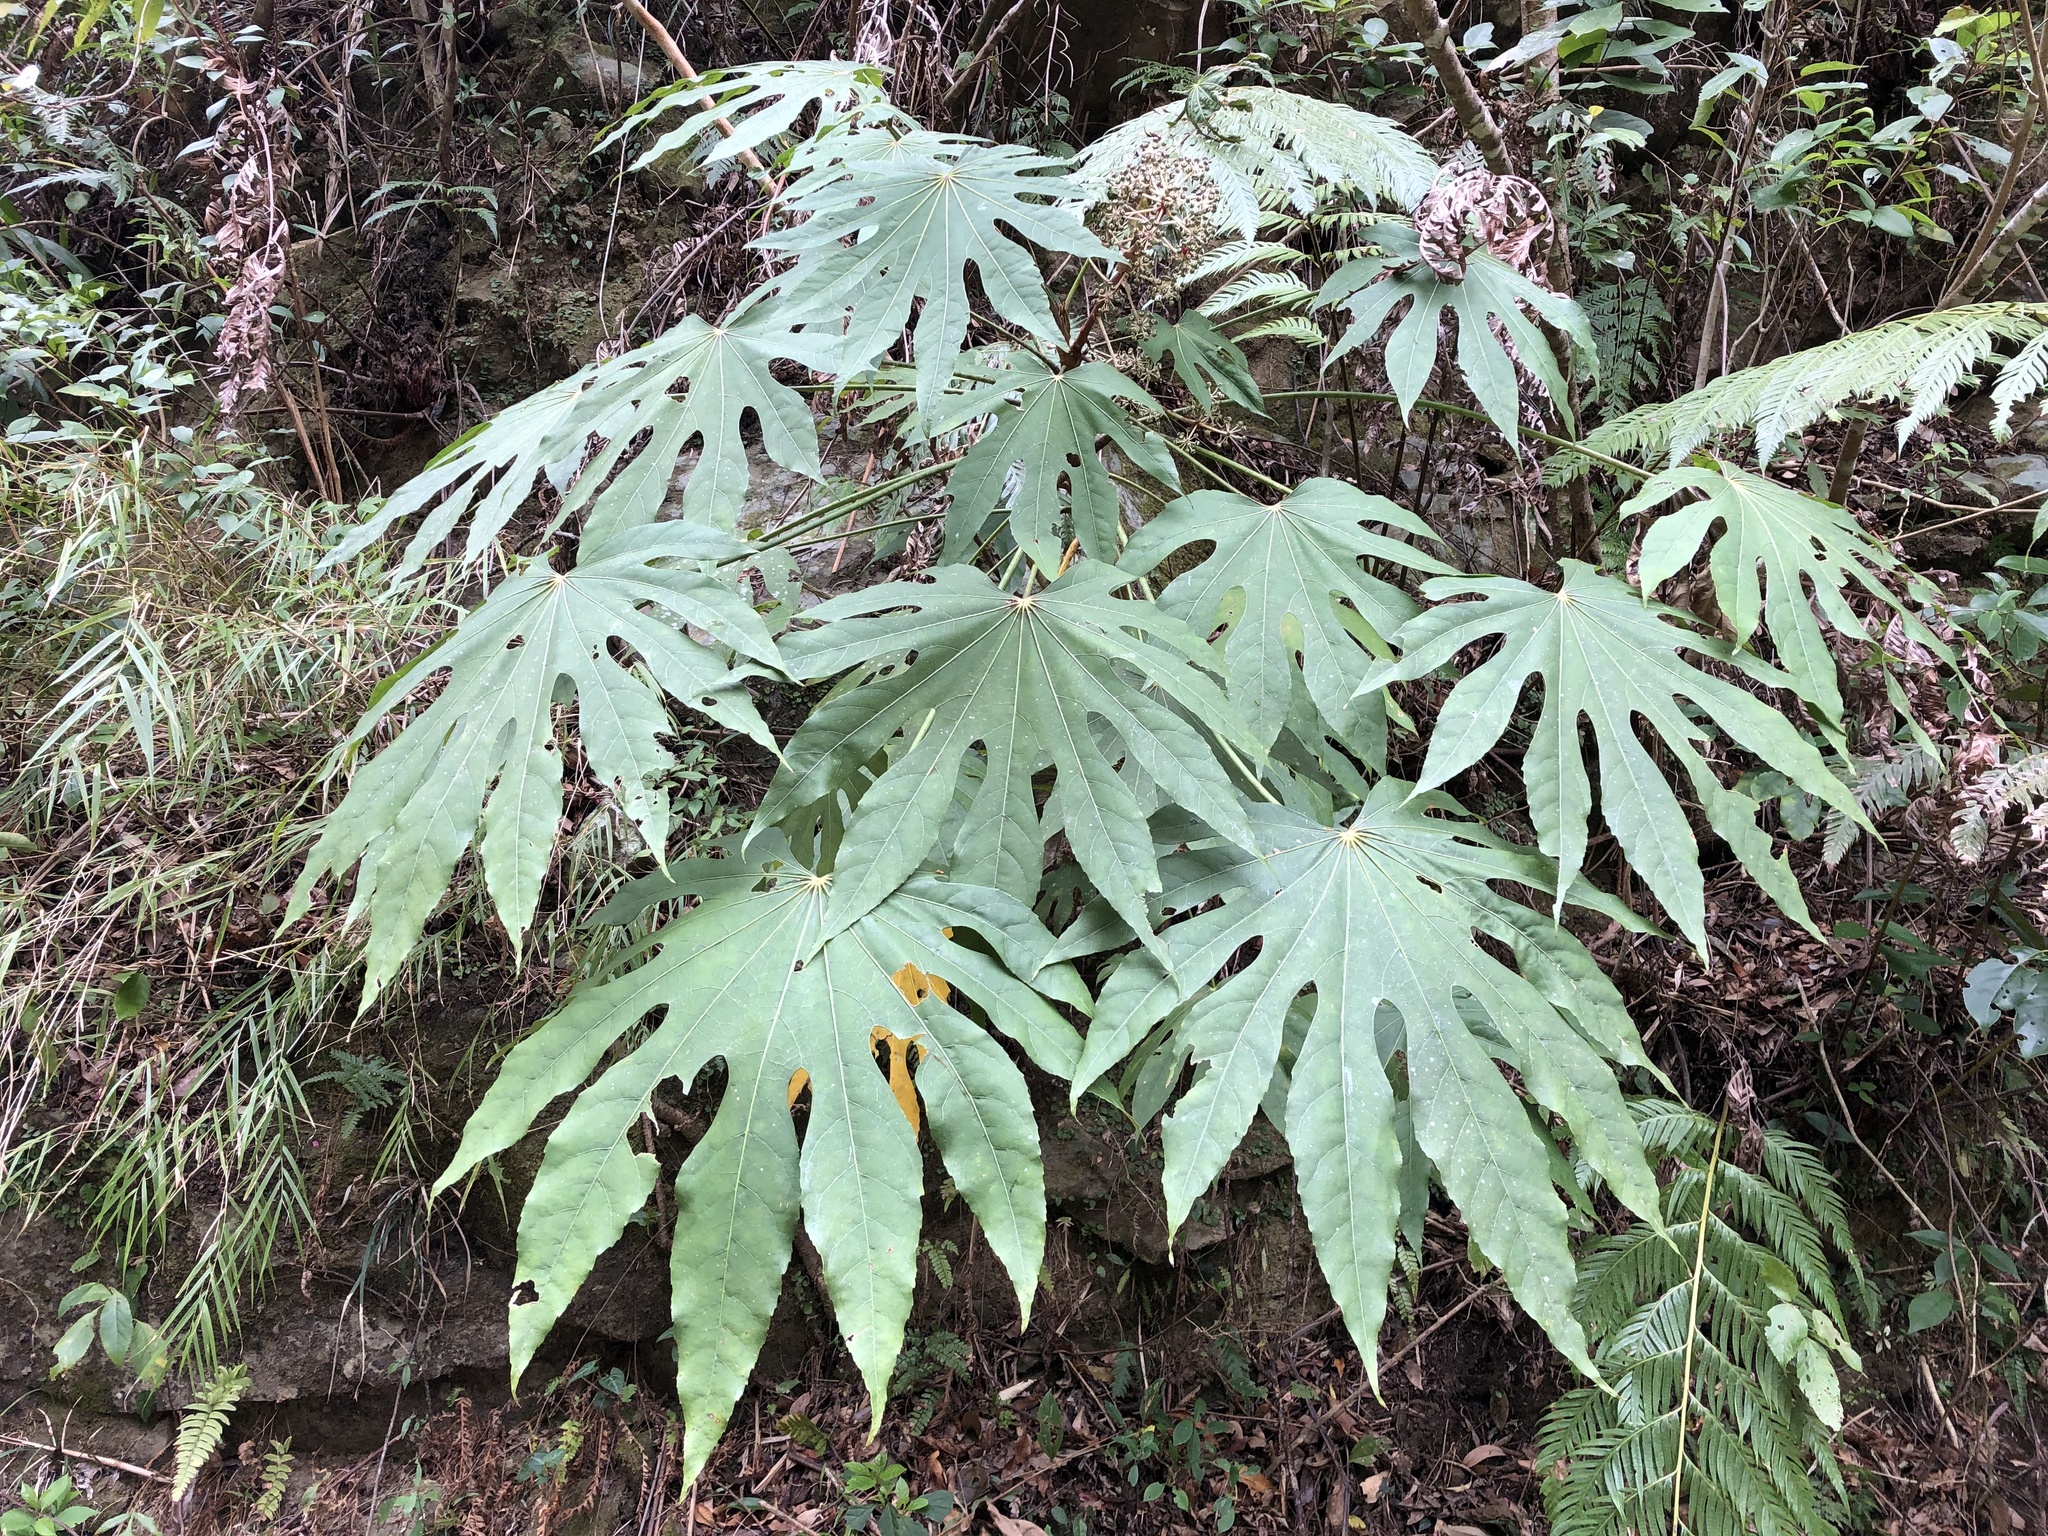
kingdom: Plantae
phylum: Tracheophyta
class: Magnoliopsida
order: Apiales
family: Araliaceae
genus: Fatsia
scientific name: Fatsia polycarpa
